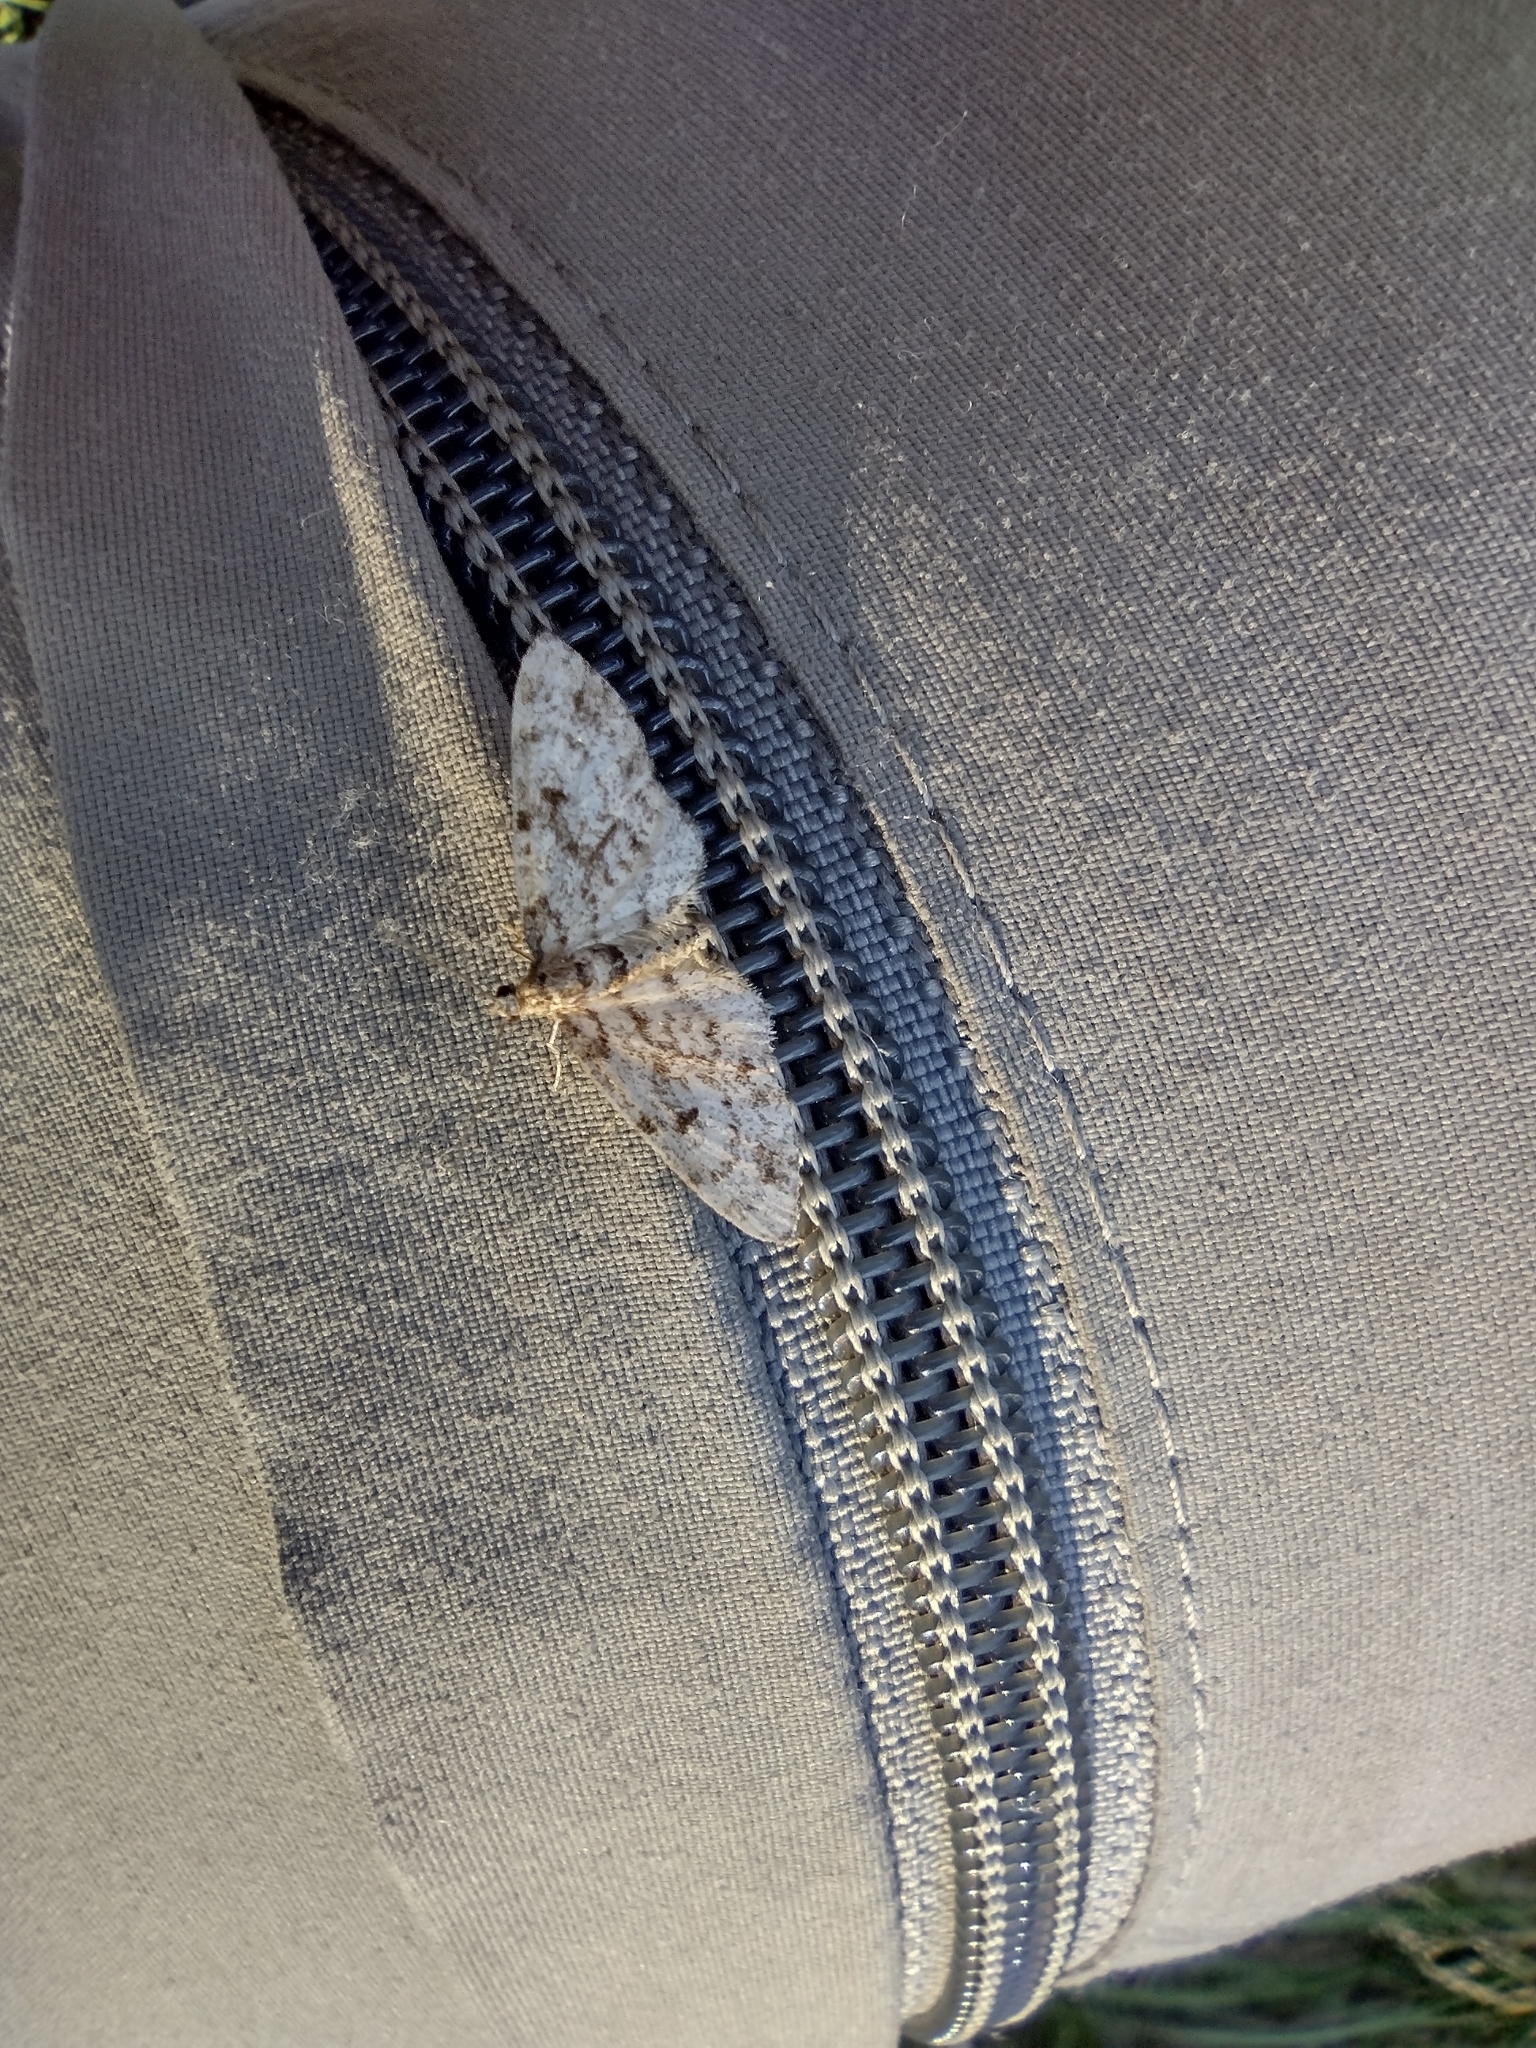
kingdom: Animalia
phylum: Arthropoda
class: Insecta
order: Lepidoptera
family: Geometridae
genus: Eupithecia
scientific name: Eupithecia tantillaria
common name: Dwarf pug
